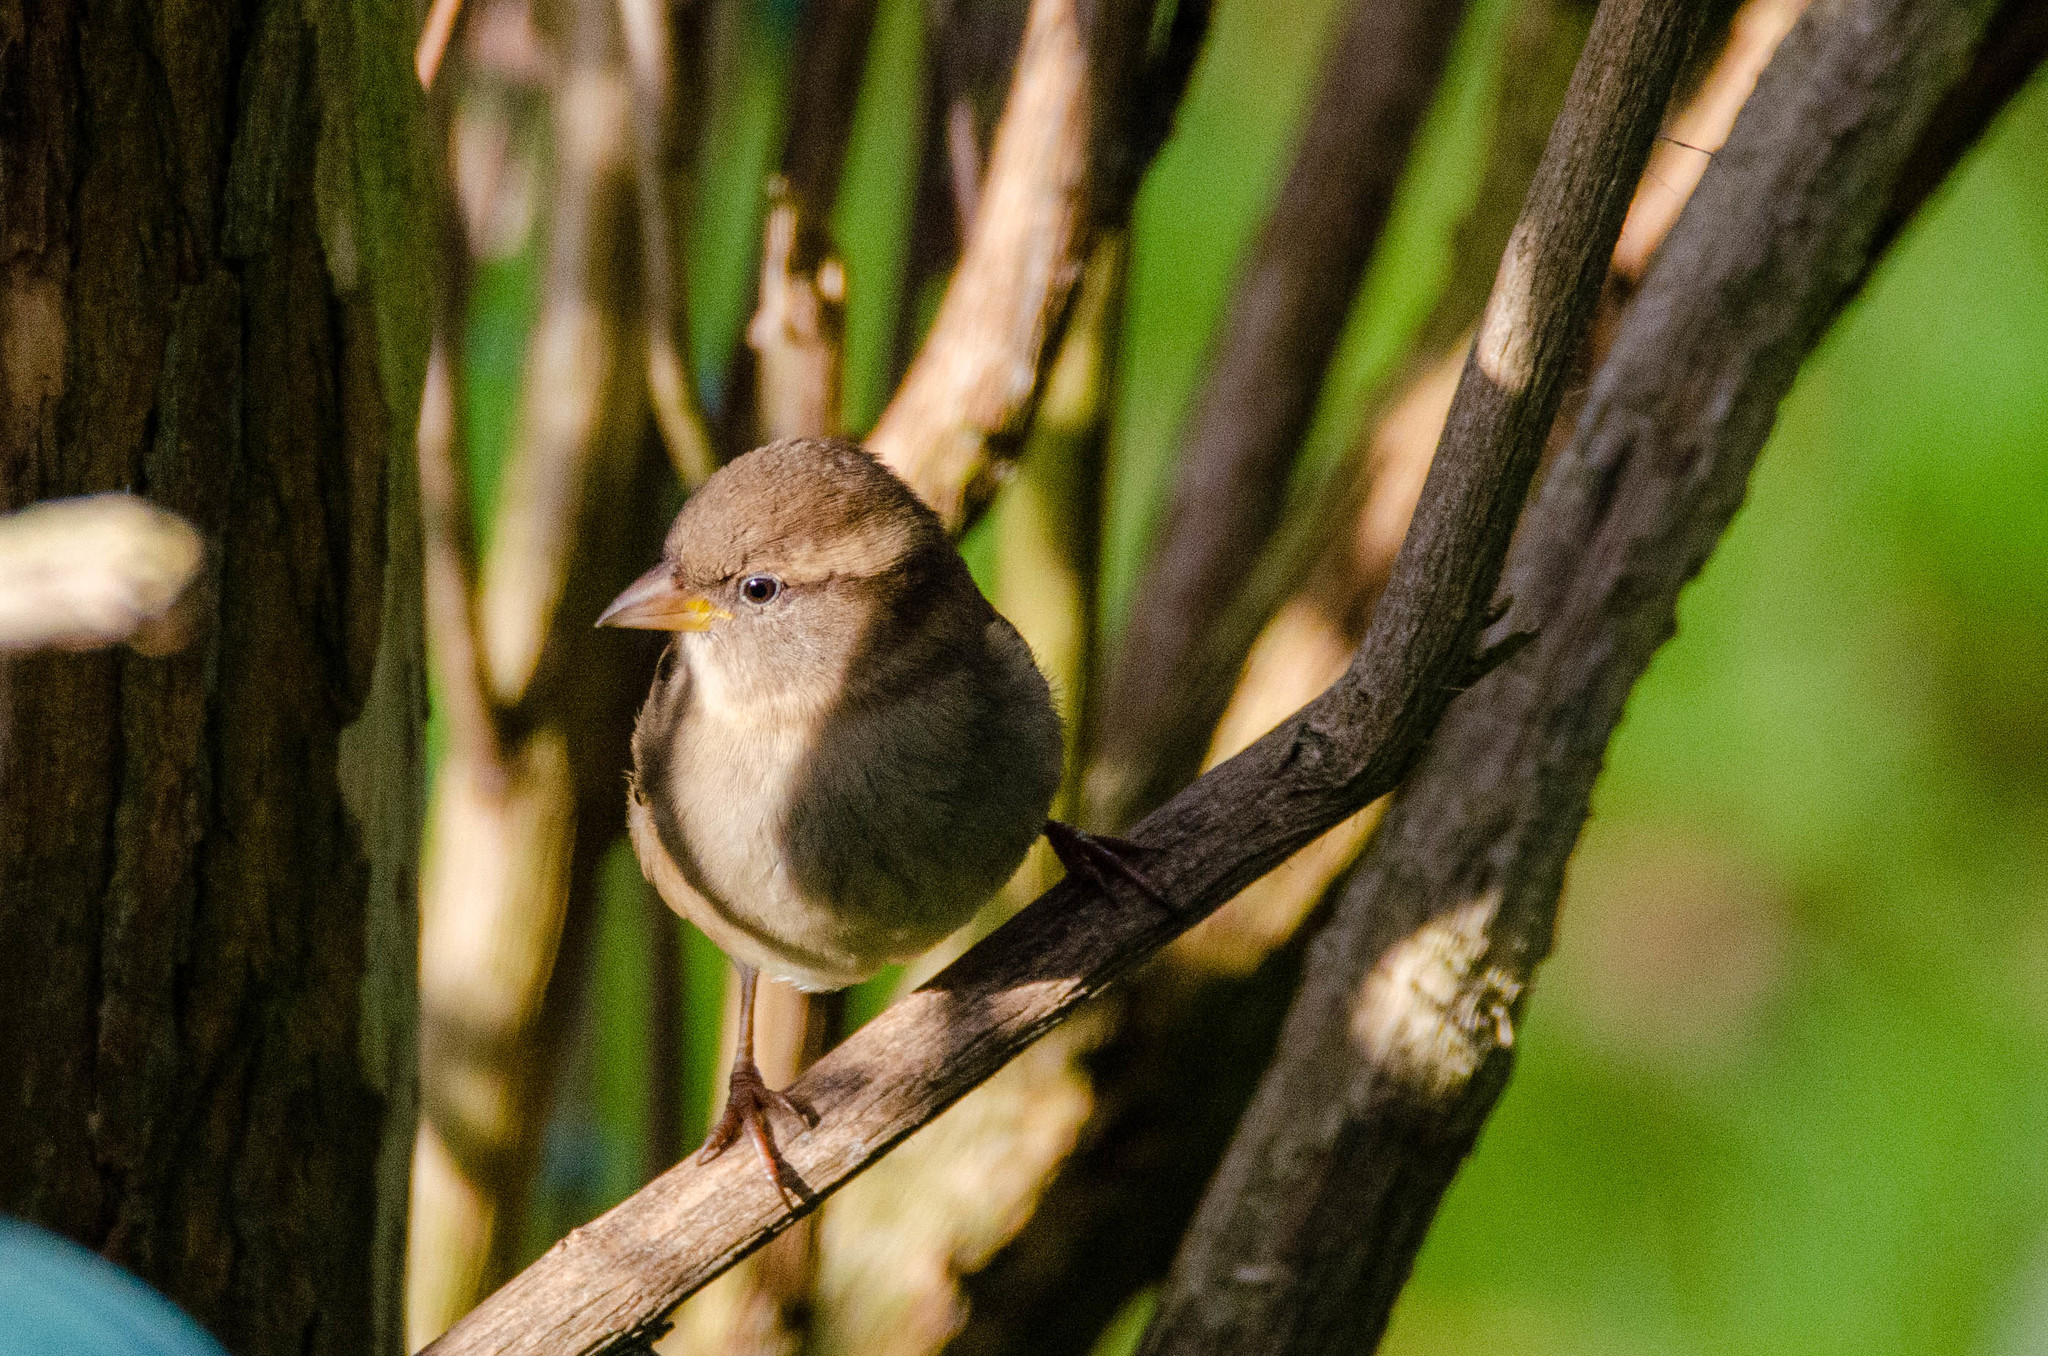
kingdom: Animalia
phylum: Chordata
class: Aves
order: Passeriformes
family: Passeridae
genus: Passer
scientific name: Passer domesticus
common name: House sparrow
